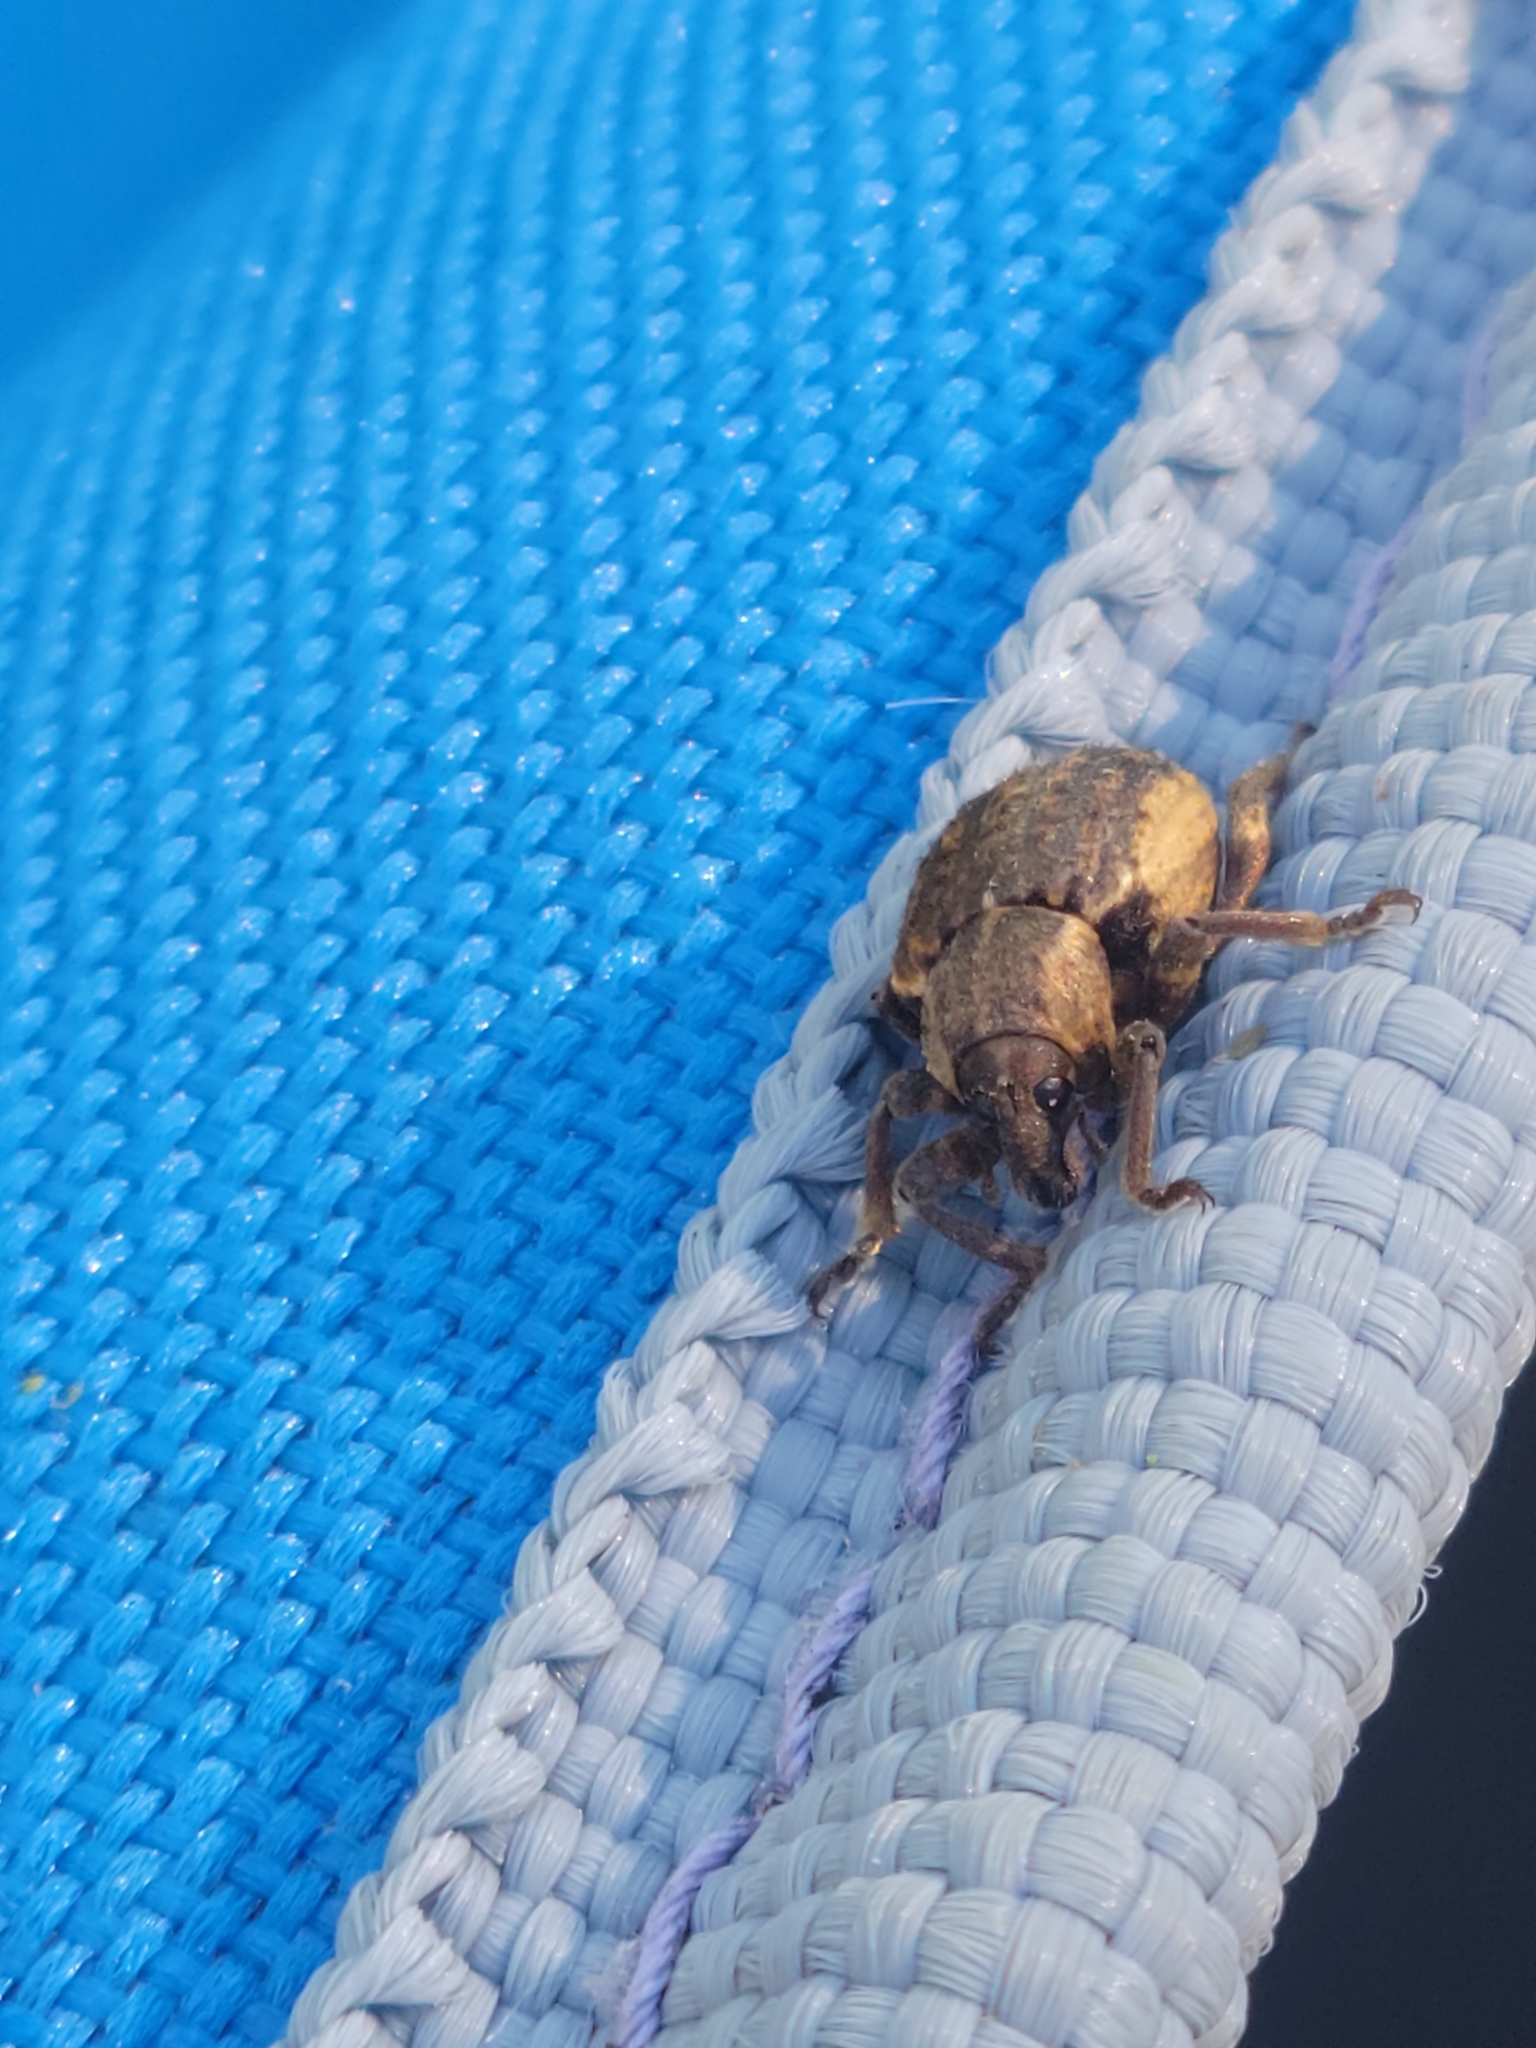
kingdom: Animalia
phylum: Arthropoda
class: Insecta
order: Coleoptera
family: Curculionidae
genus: Brachypera
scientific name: Brachypera zoilus
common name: Clover leaf weevil
